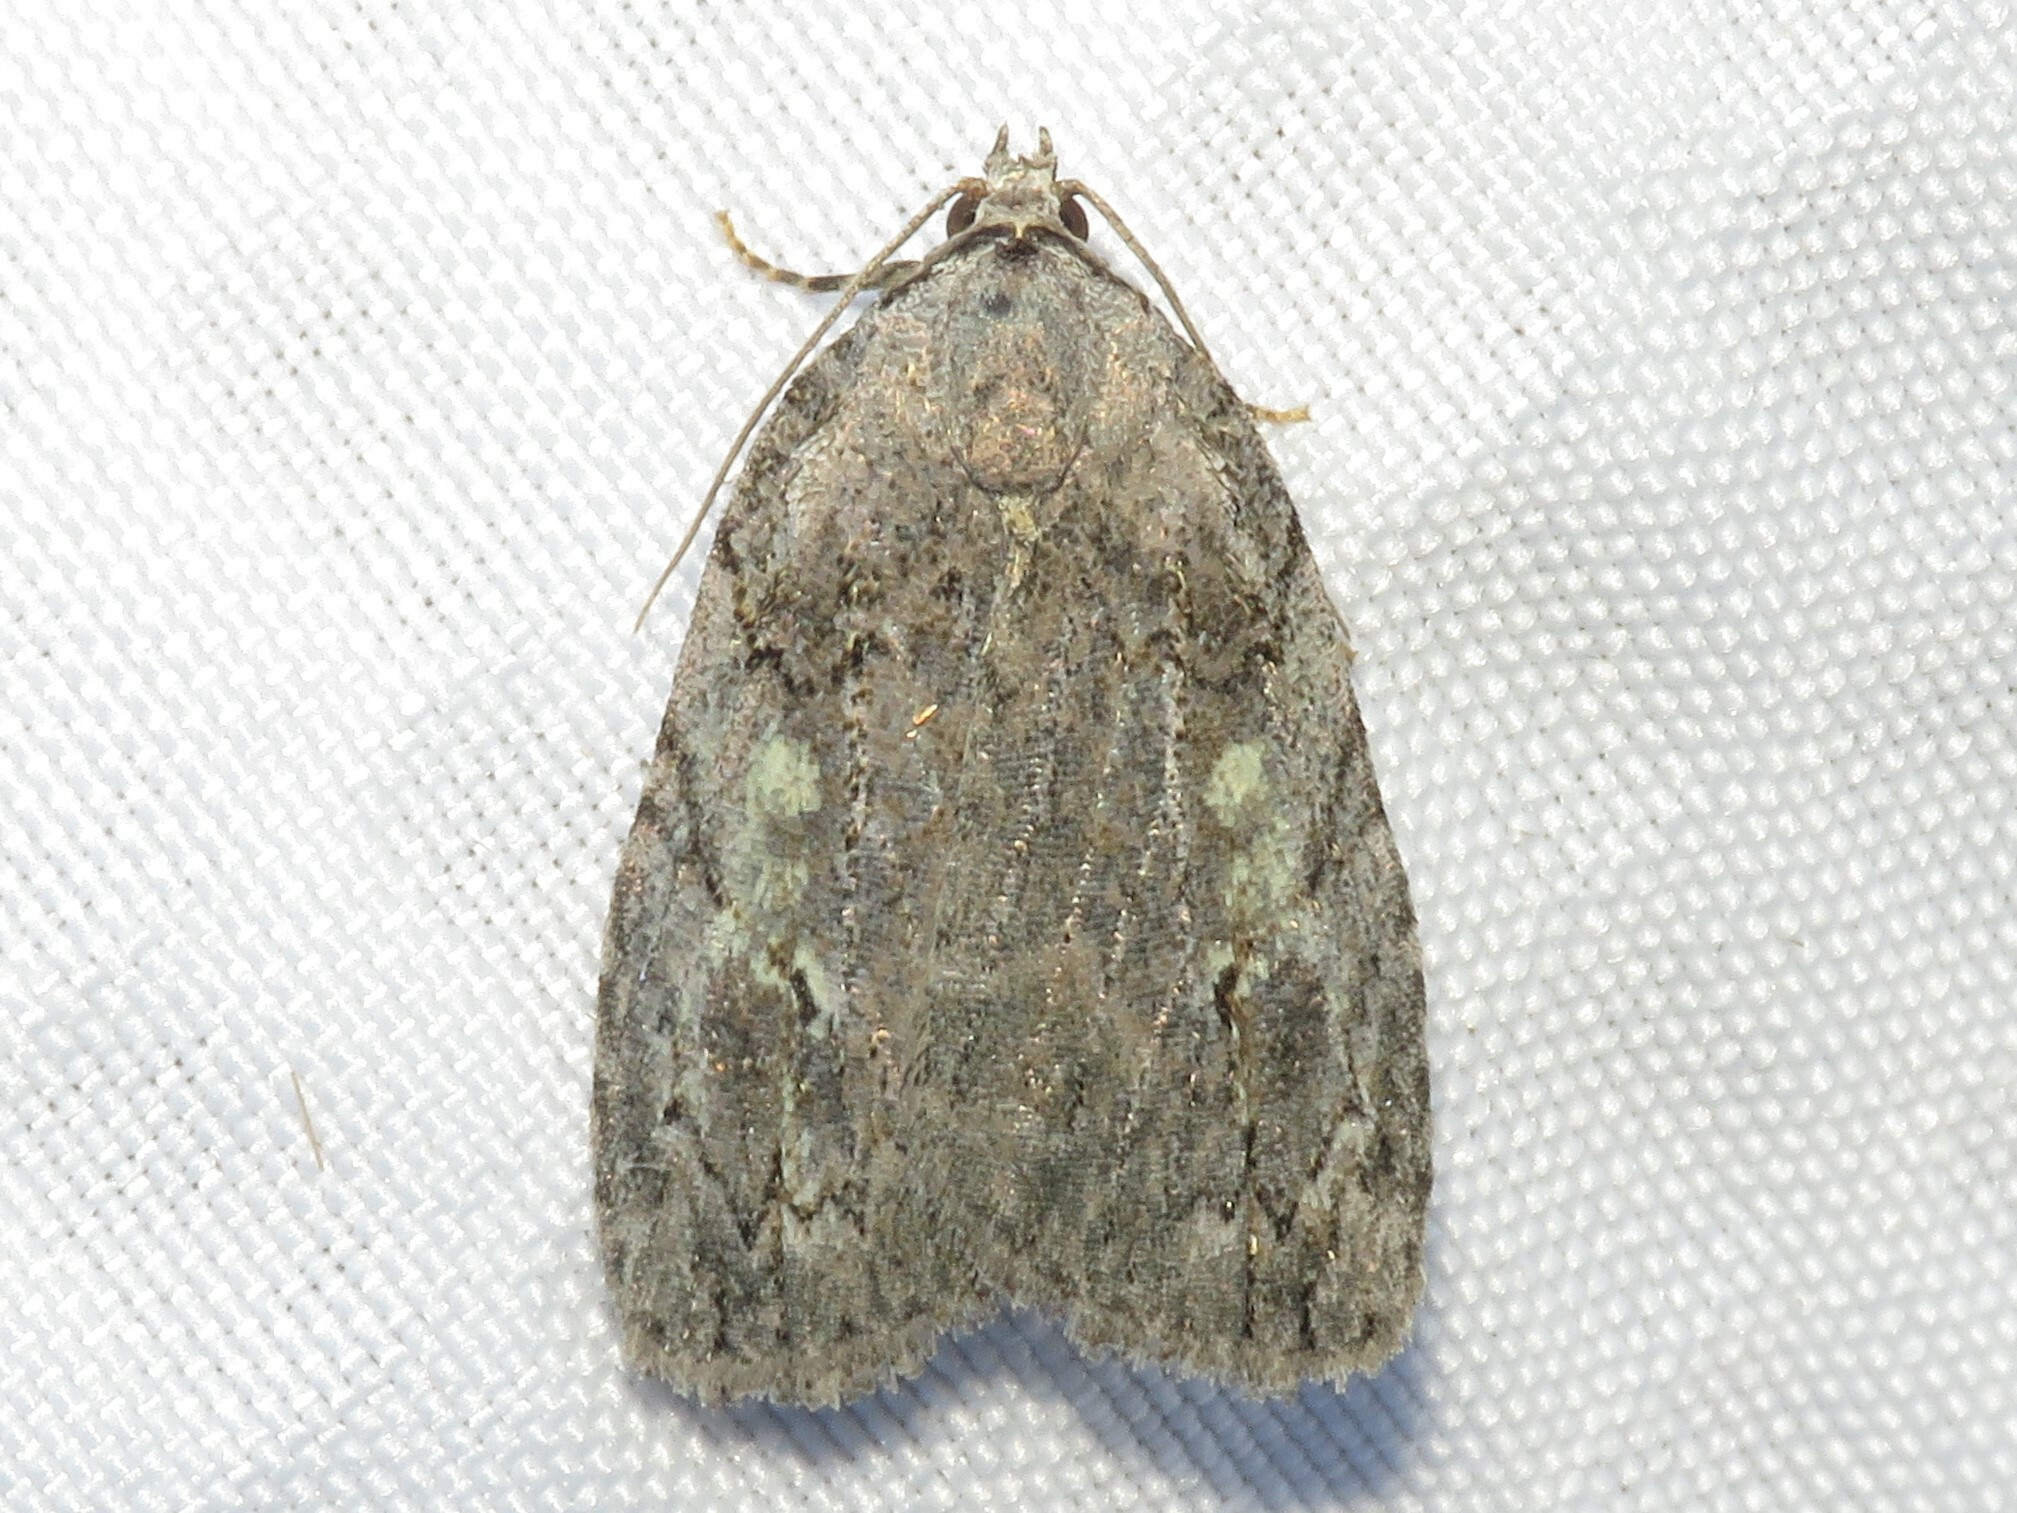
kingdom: Animalia
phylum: Arthropoda
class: Insecta
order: Lepidoptera
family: Noctuidae
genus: Balsa
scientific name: Balsa labecula
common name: White-blotched balsa moth
